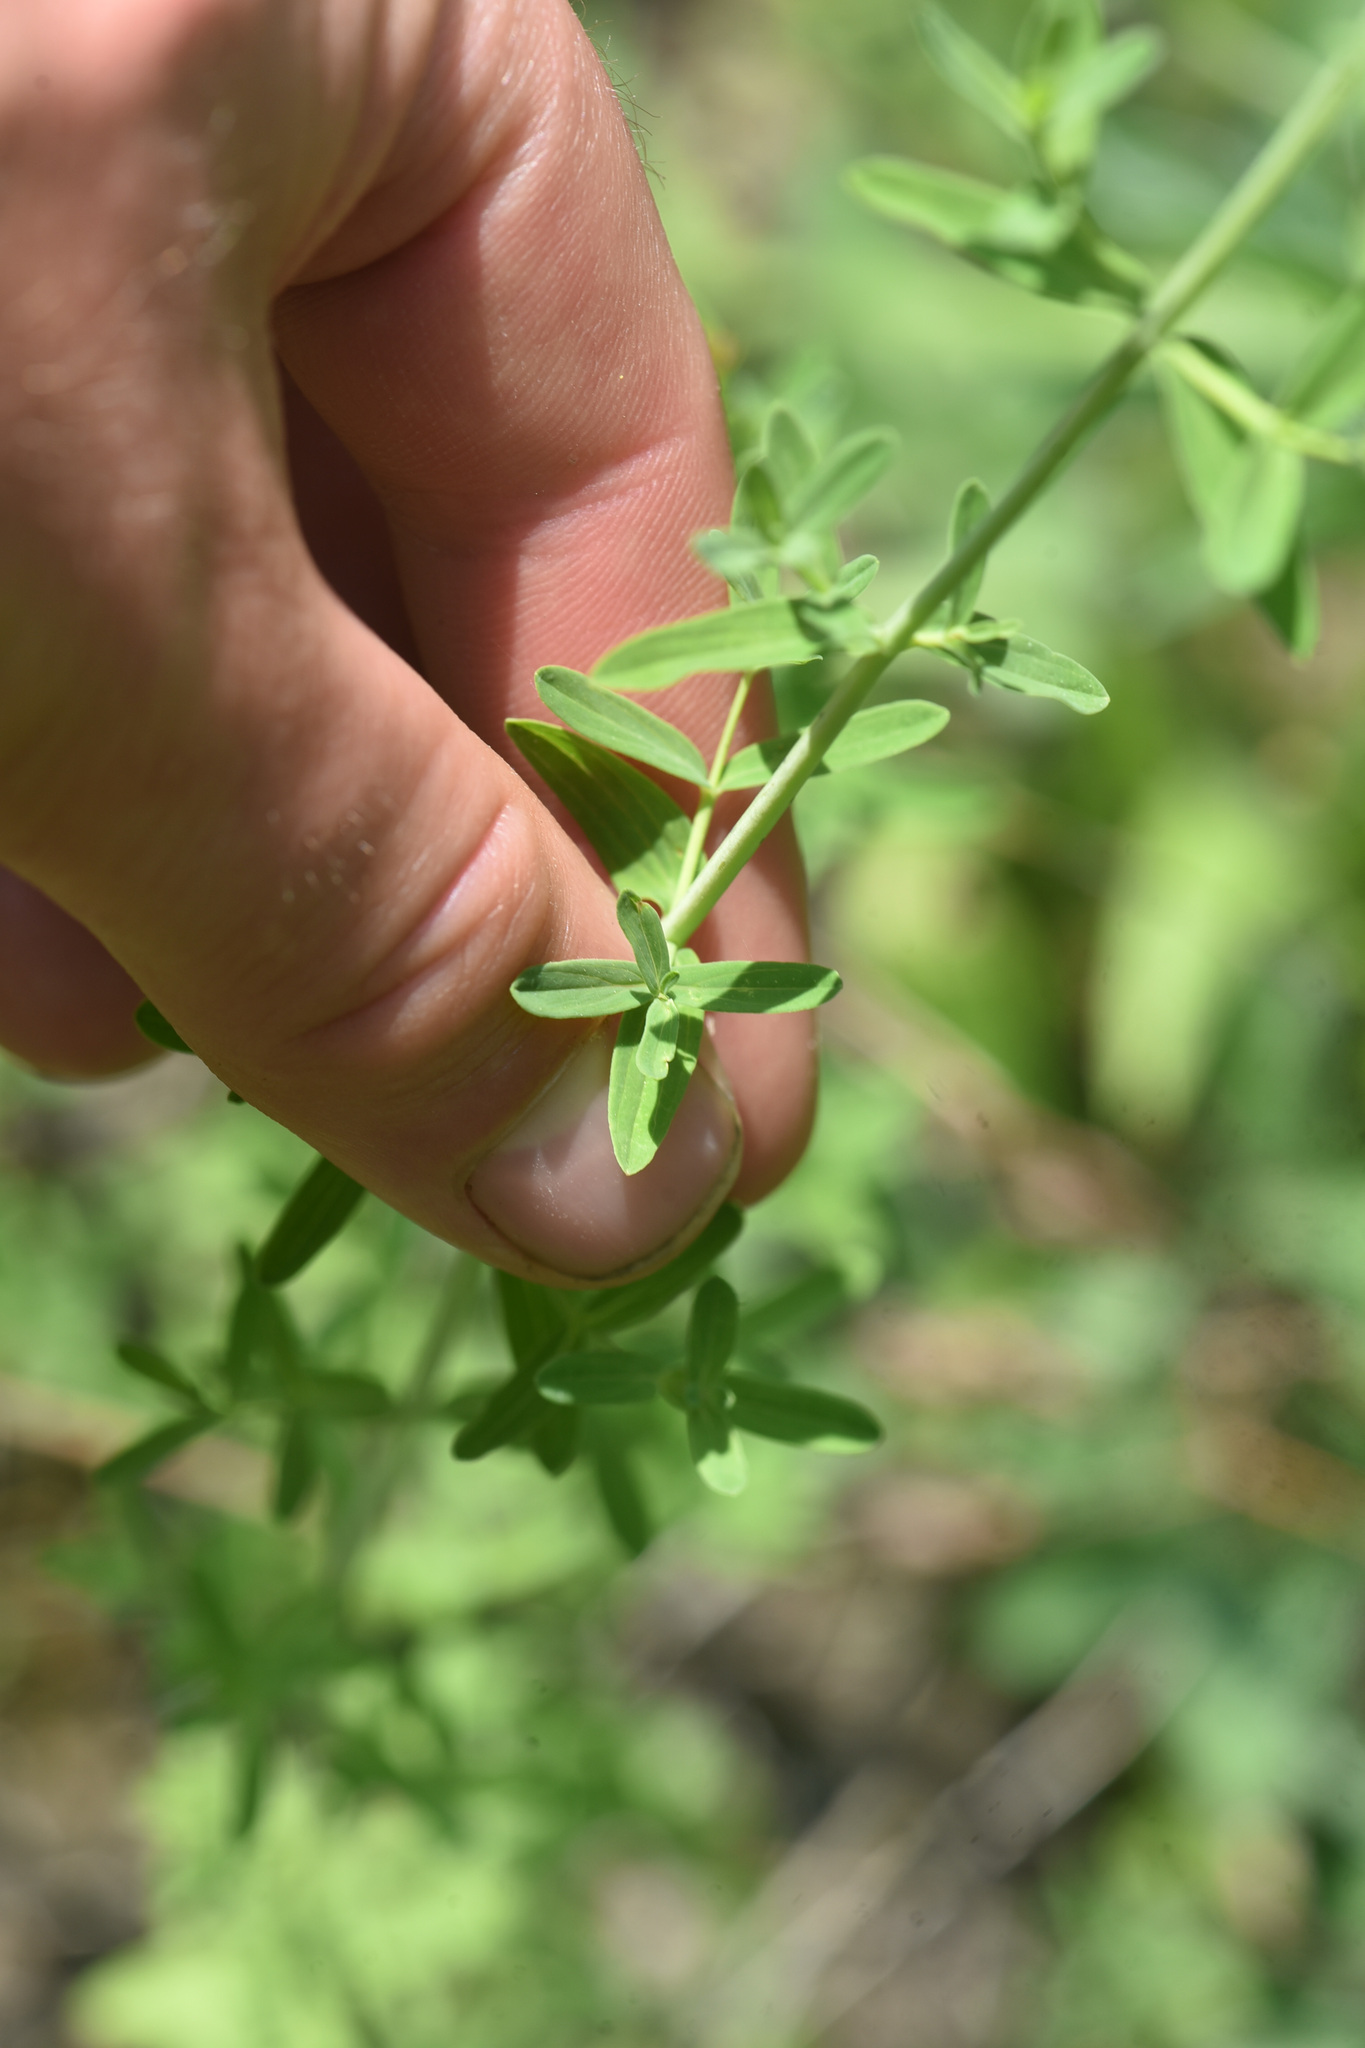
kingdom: Plantae
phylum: Tracheophyta
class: Magnoliopsida
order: Malpighiales
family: Hypericaceae
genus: Hypericum
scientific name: Hypericum perforatum
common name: Common st. johnswort
